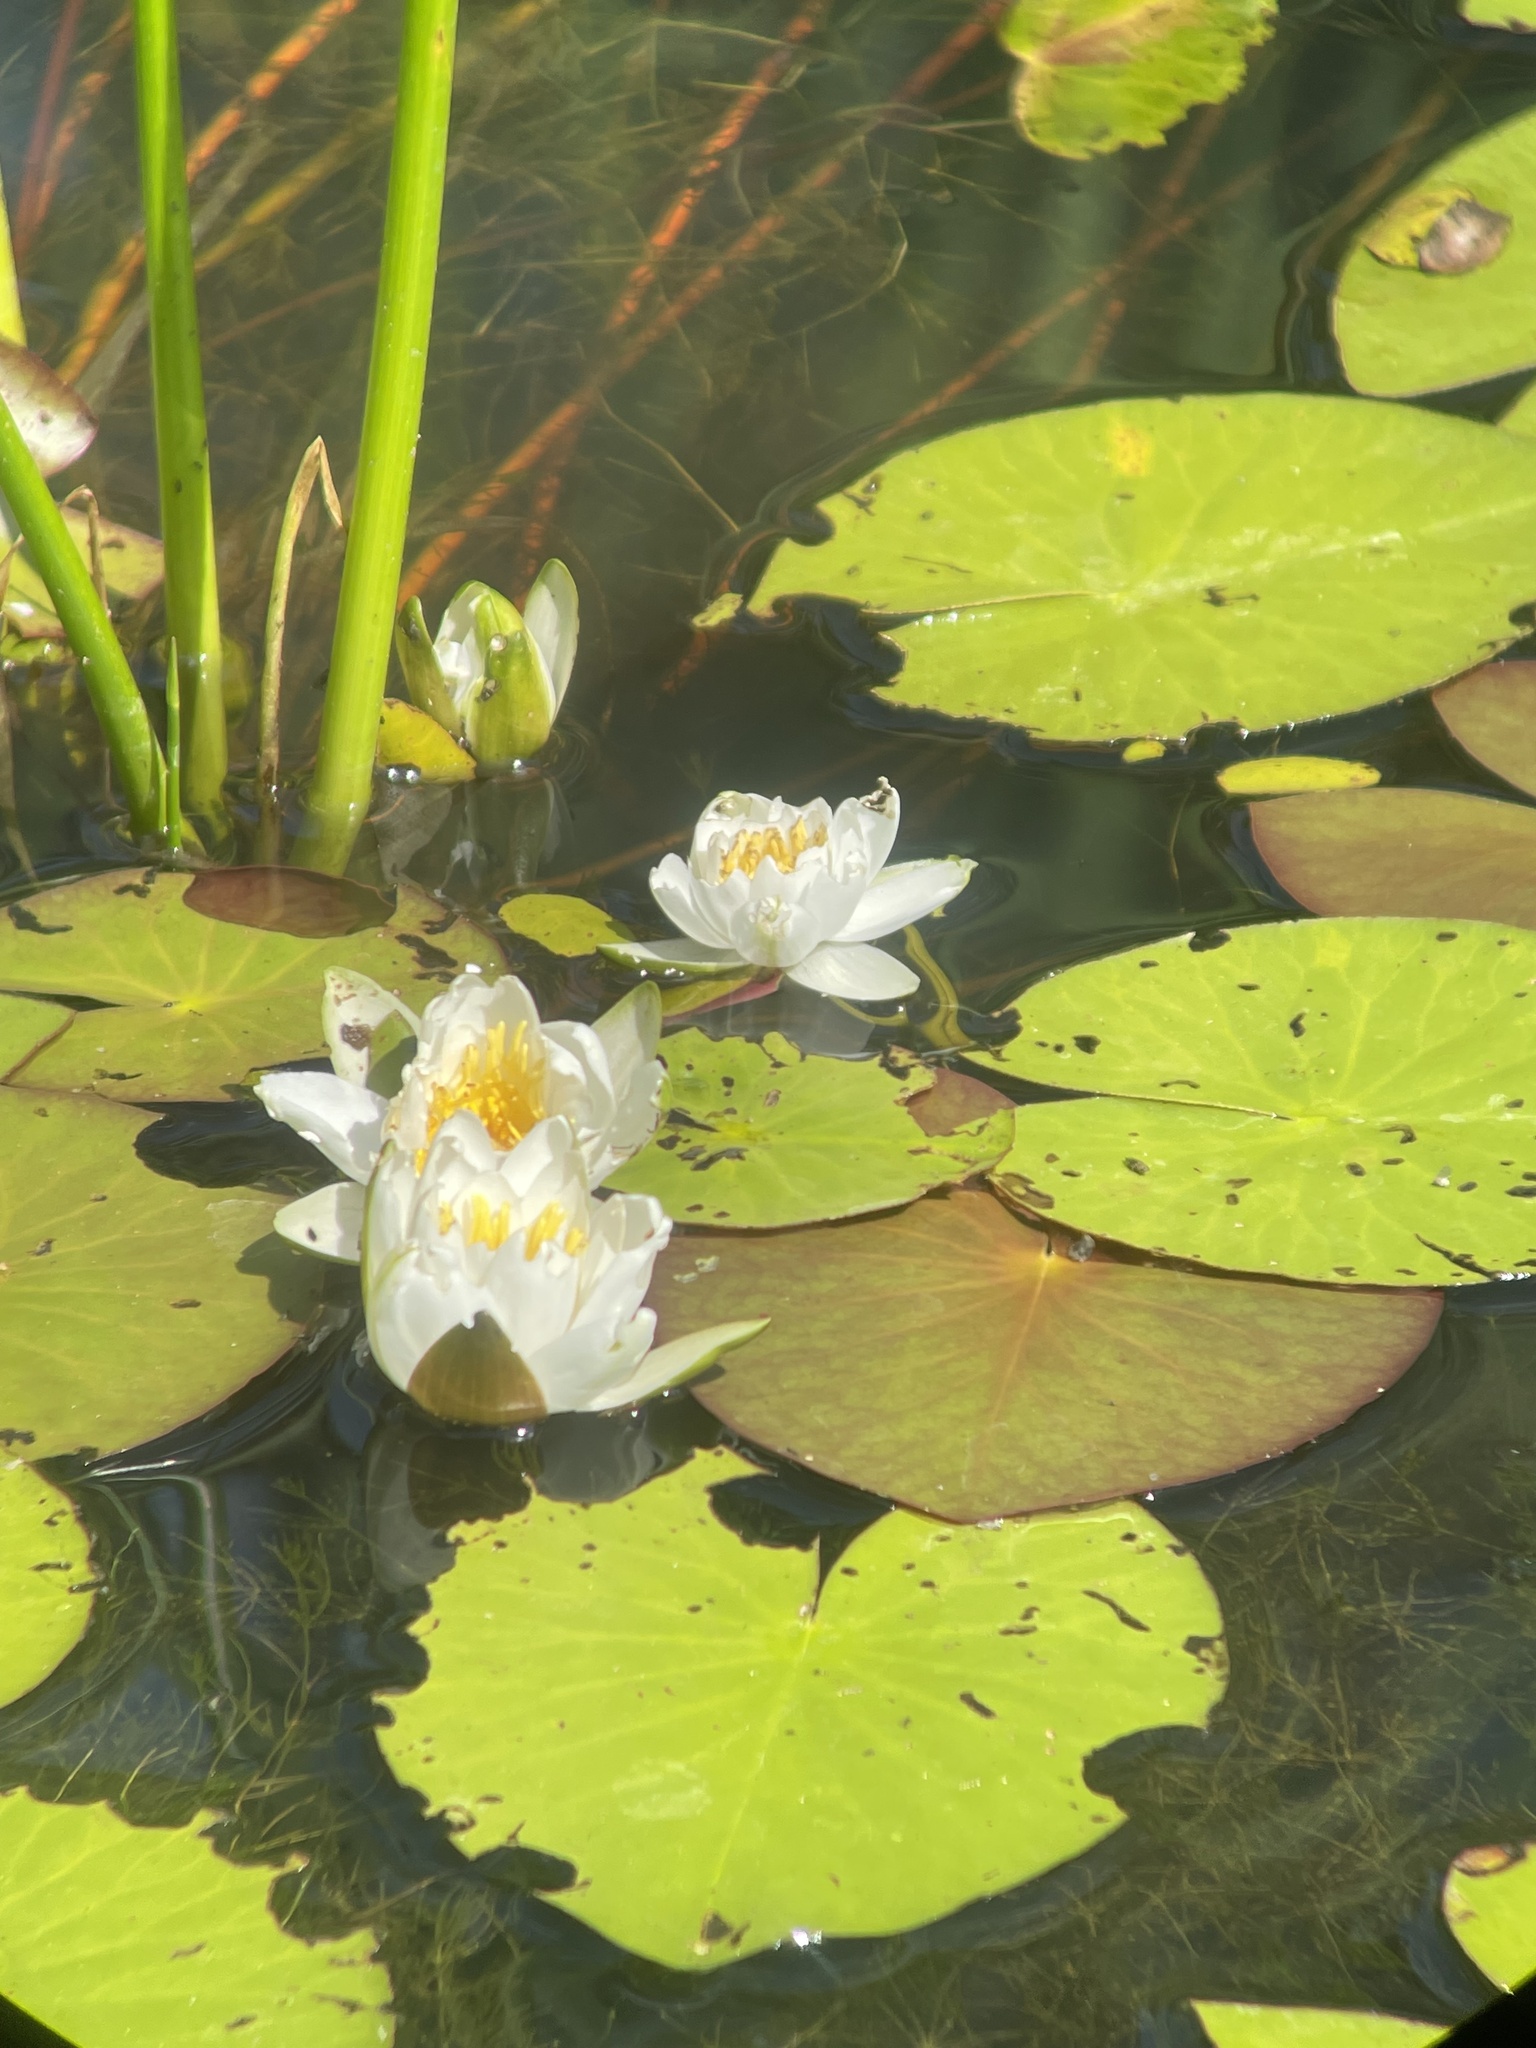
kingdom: Plantae
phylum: Tracheophyta
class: Magnoliopsida
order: Nymphaeales
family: Nymphaeaceae
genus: Nymphaea
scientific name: Nymphaea alba
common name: White water-lily
